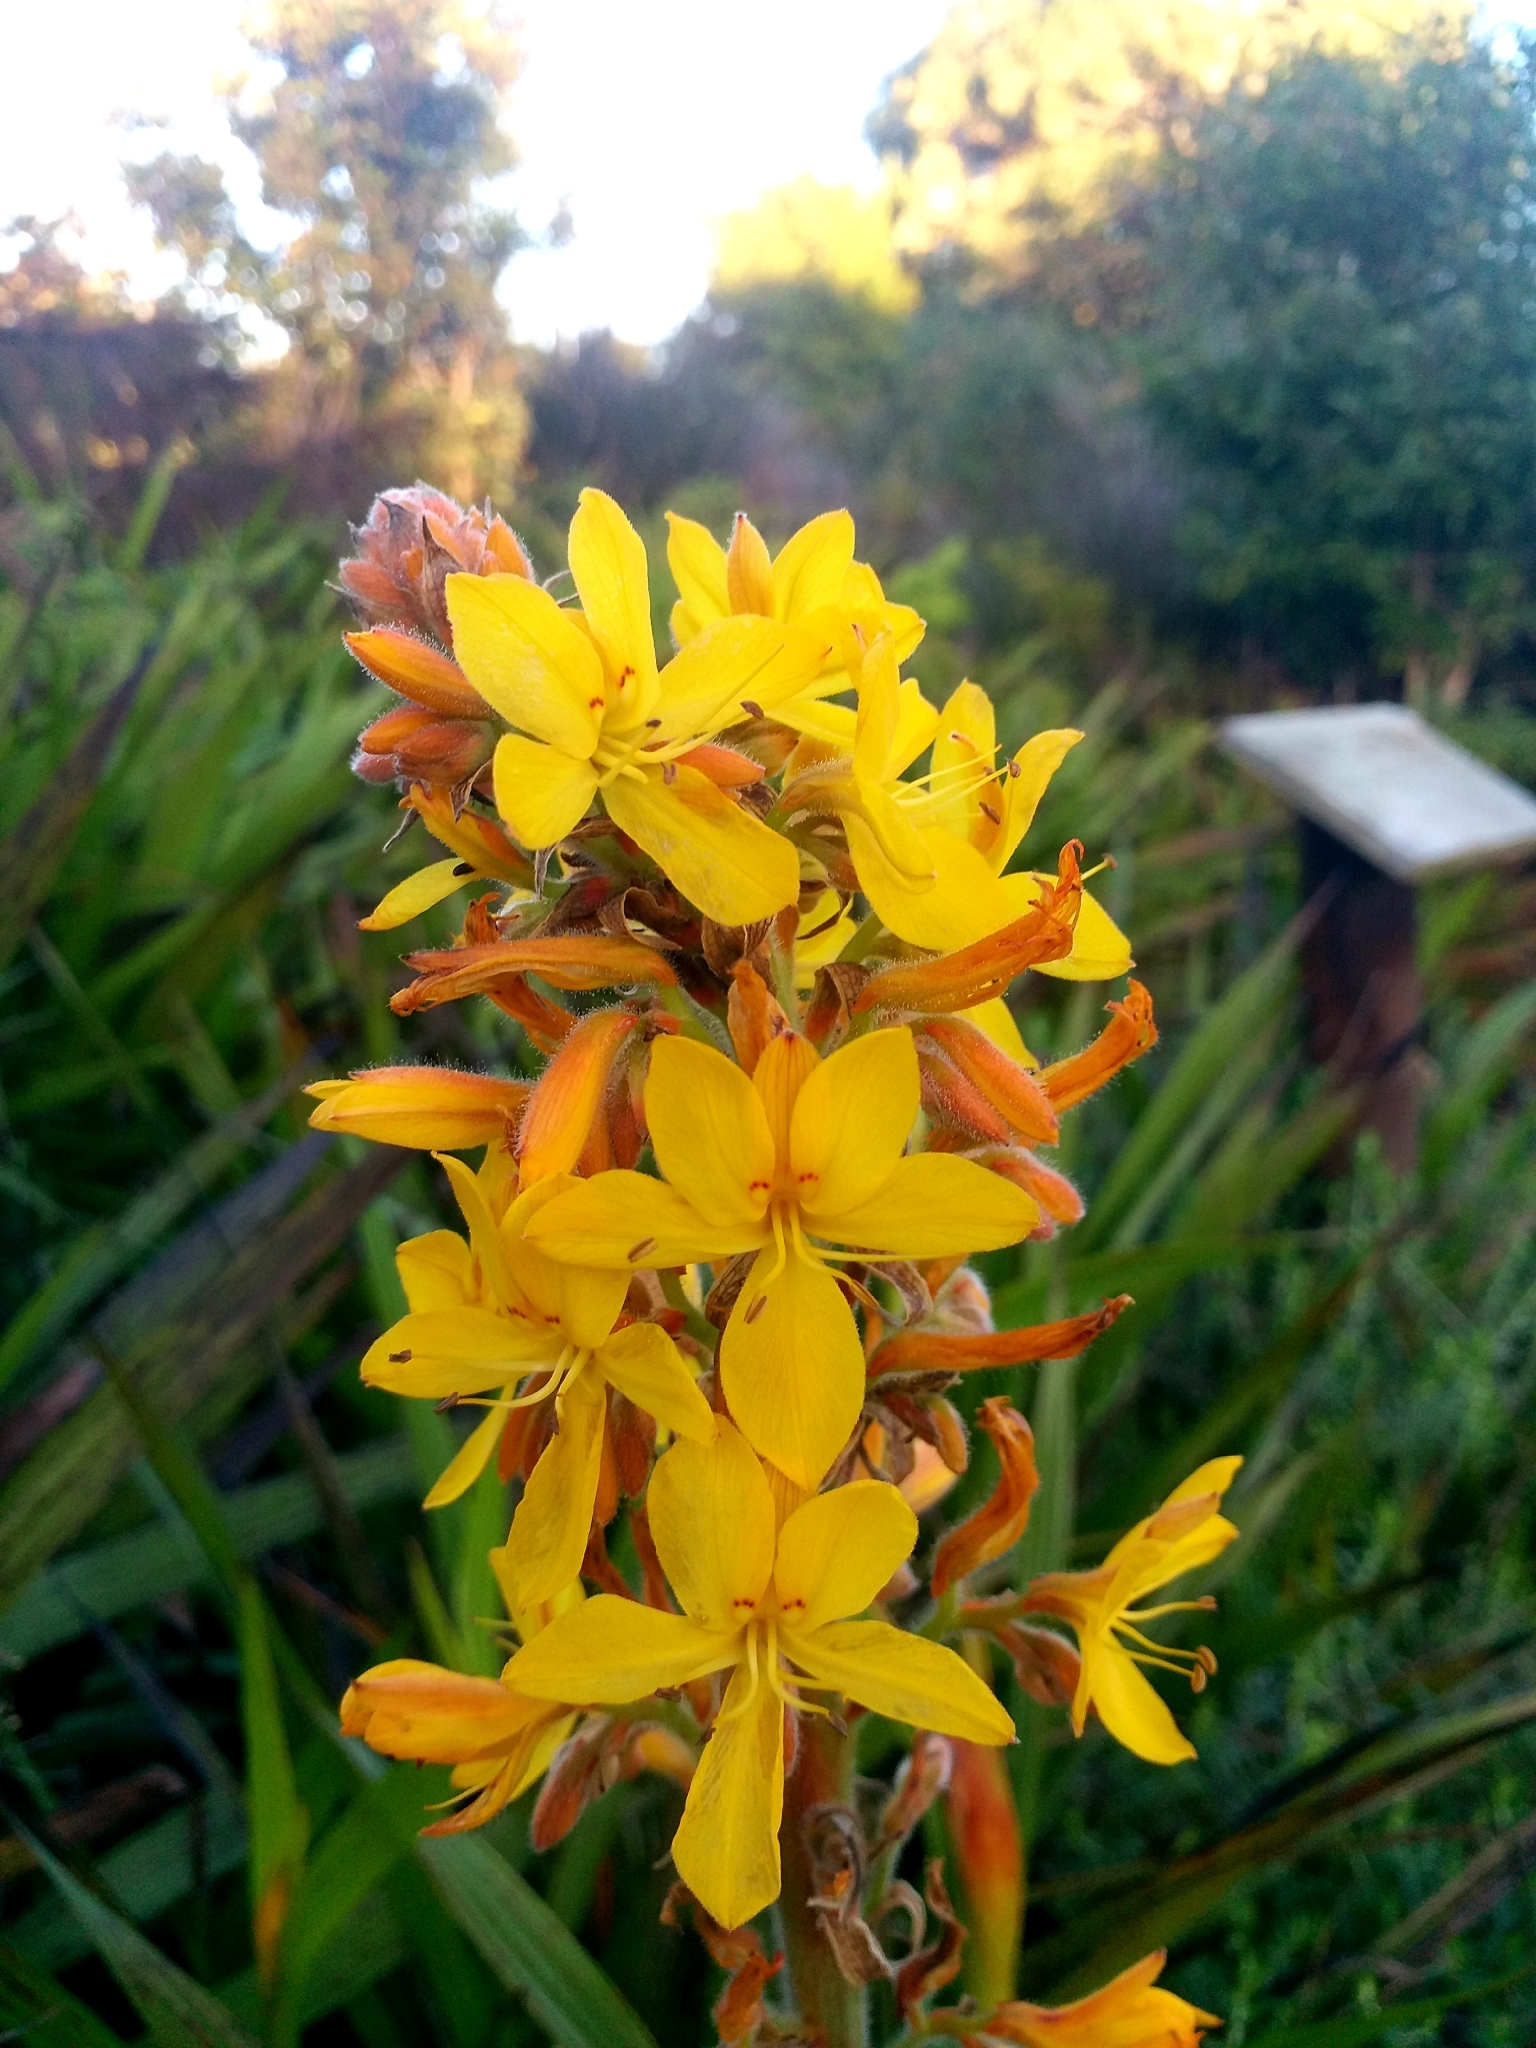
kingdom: Plantae
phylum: Tracheophyta
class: Liliopsida
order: Commelinales
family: Haemodoraceae
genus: Wachendorfia
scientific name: Wachendorfia thyrsiflora
